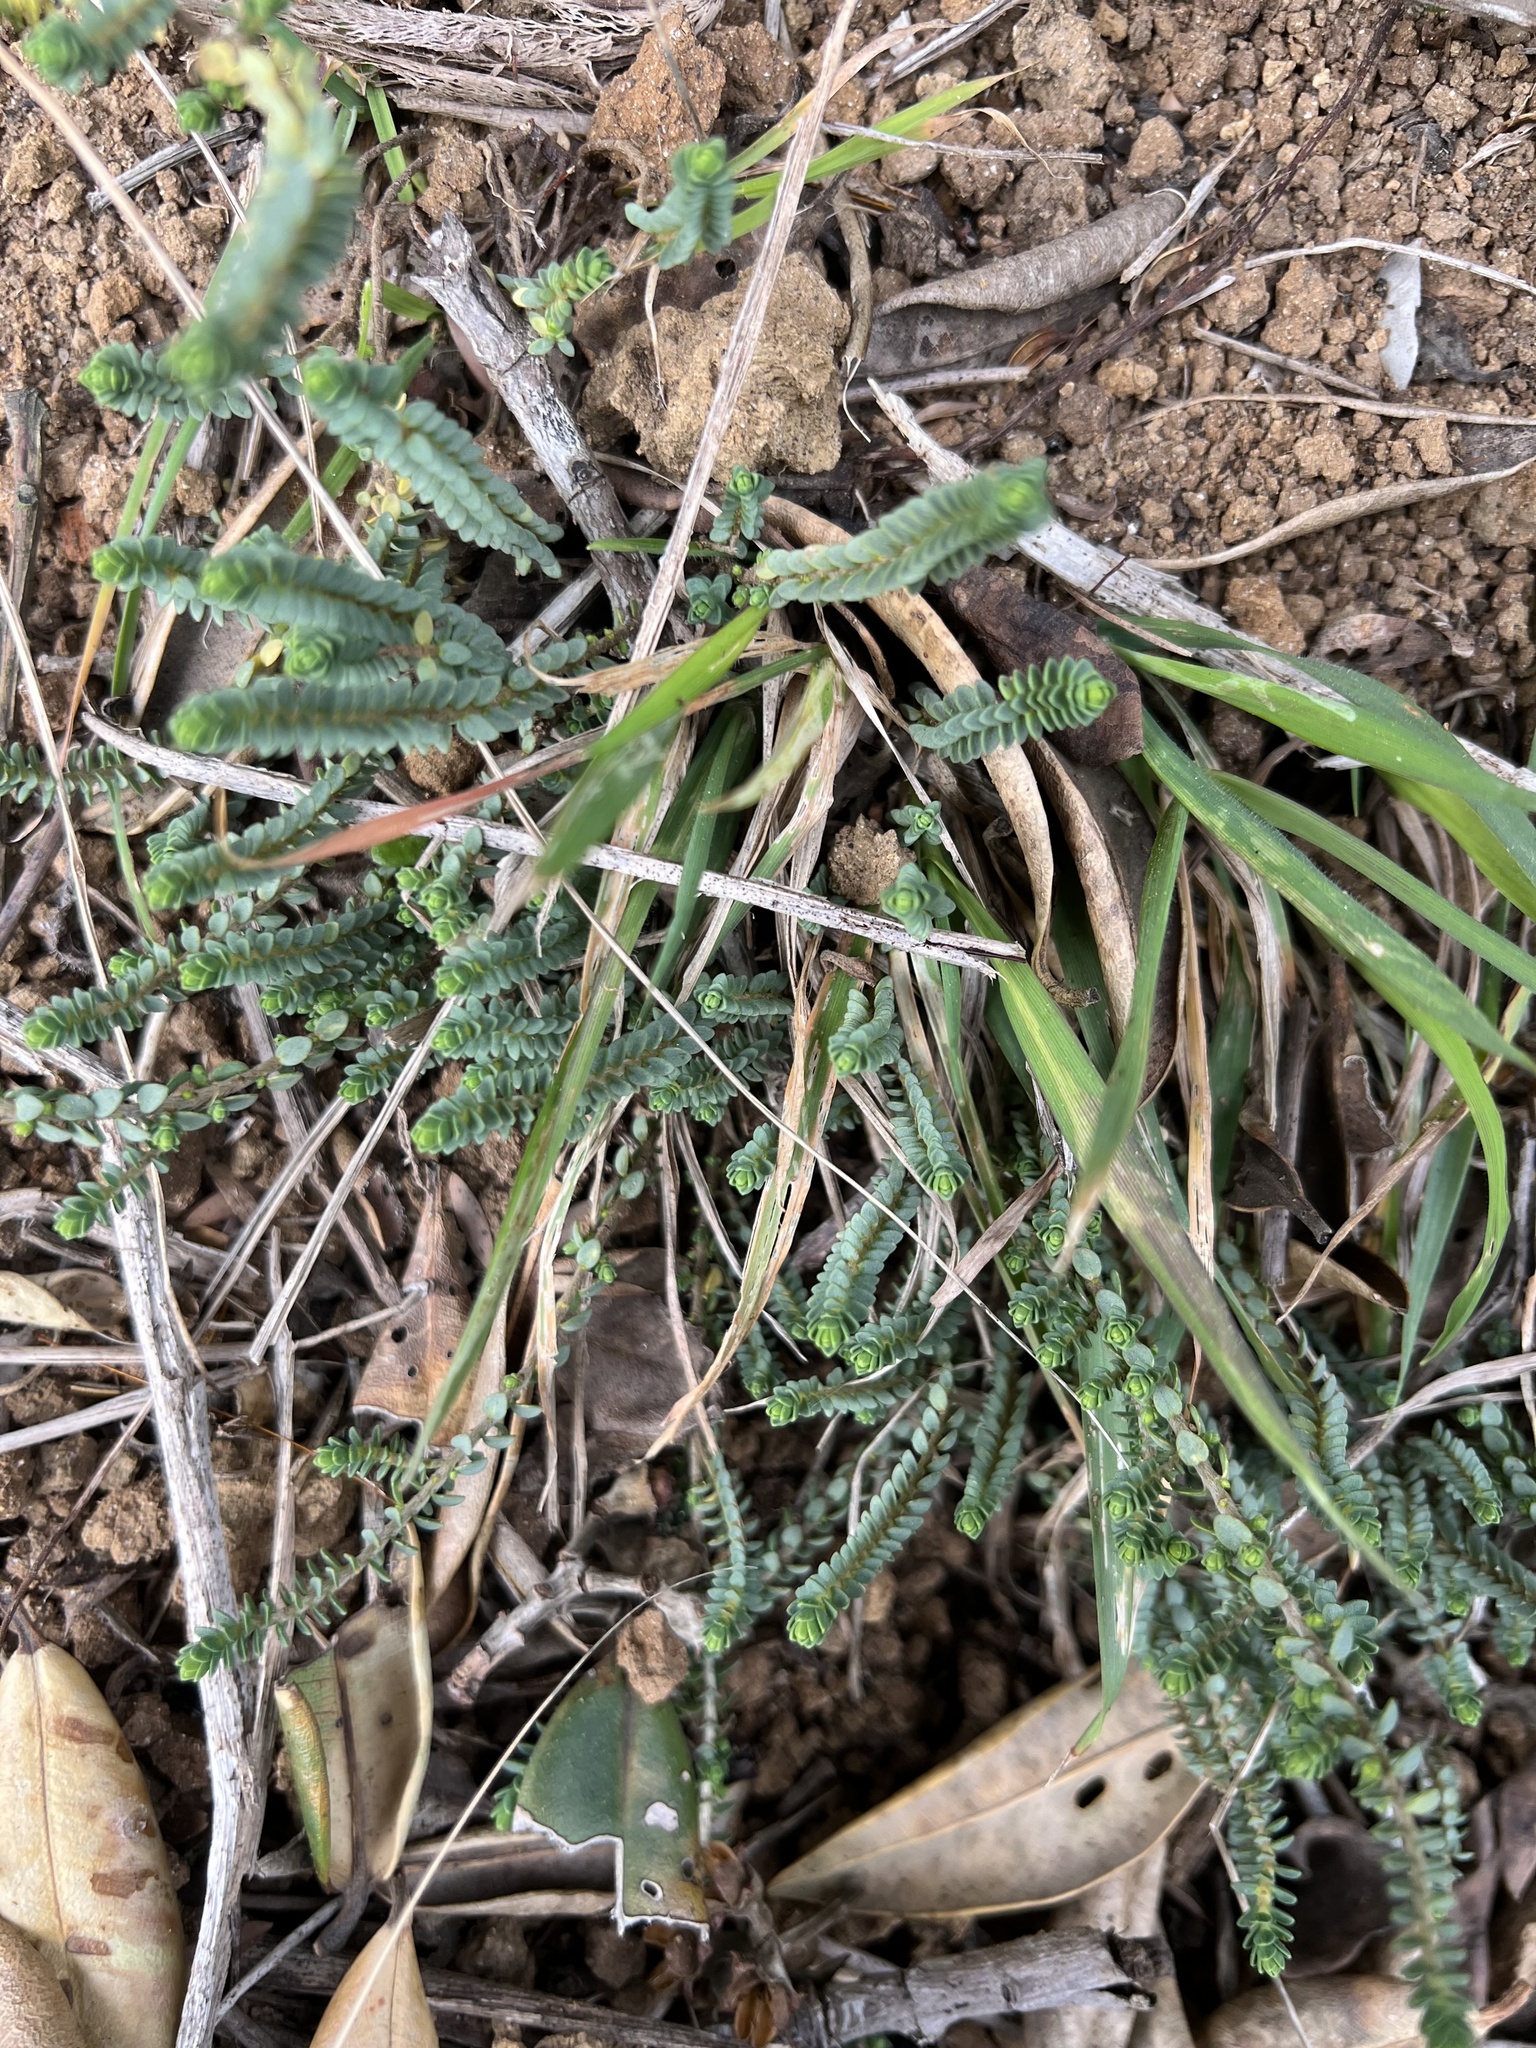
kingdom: Plantae
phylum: Tracheophyta
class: Magnoliopsida
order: Malvales
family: Thymelaeaceae
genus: Pimelea
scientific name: Pimelea carnosa
